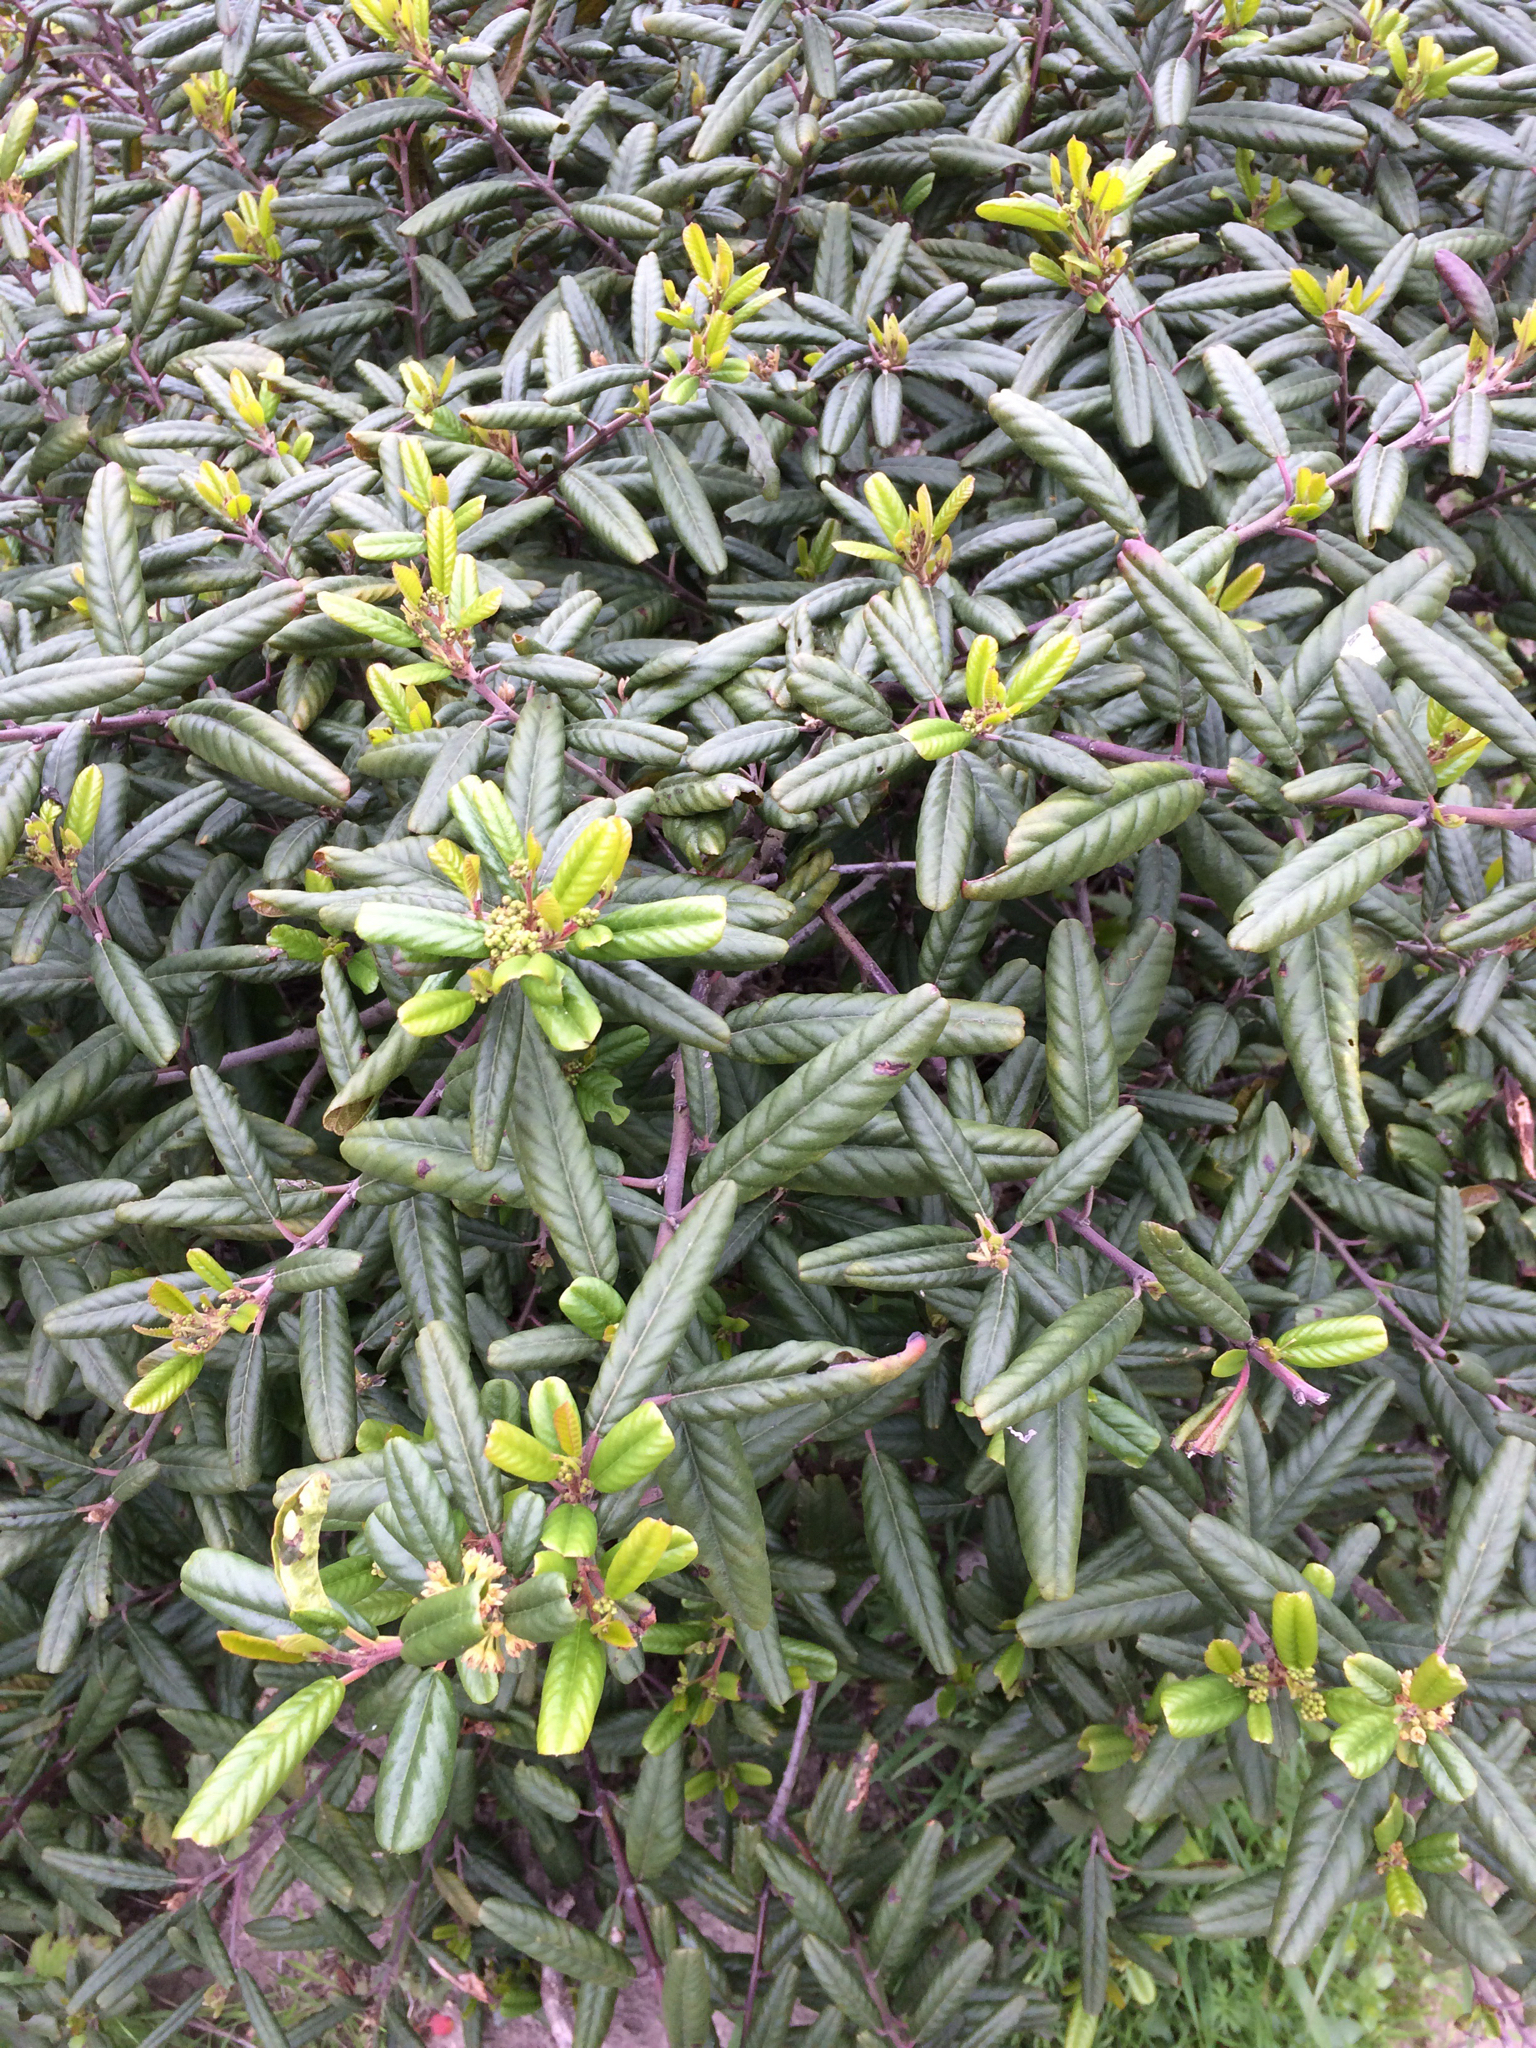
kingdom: Plantae
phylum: Tracheophyta
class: Magnoliopsida
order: Rosales
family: Rhamnaceae
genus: Frangula
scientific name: Frangula californica
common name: California buckthorn
